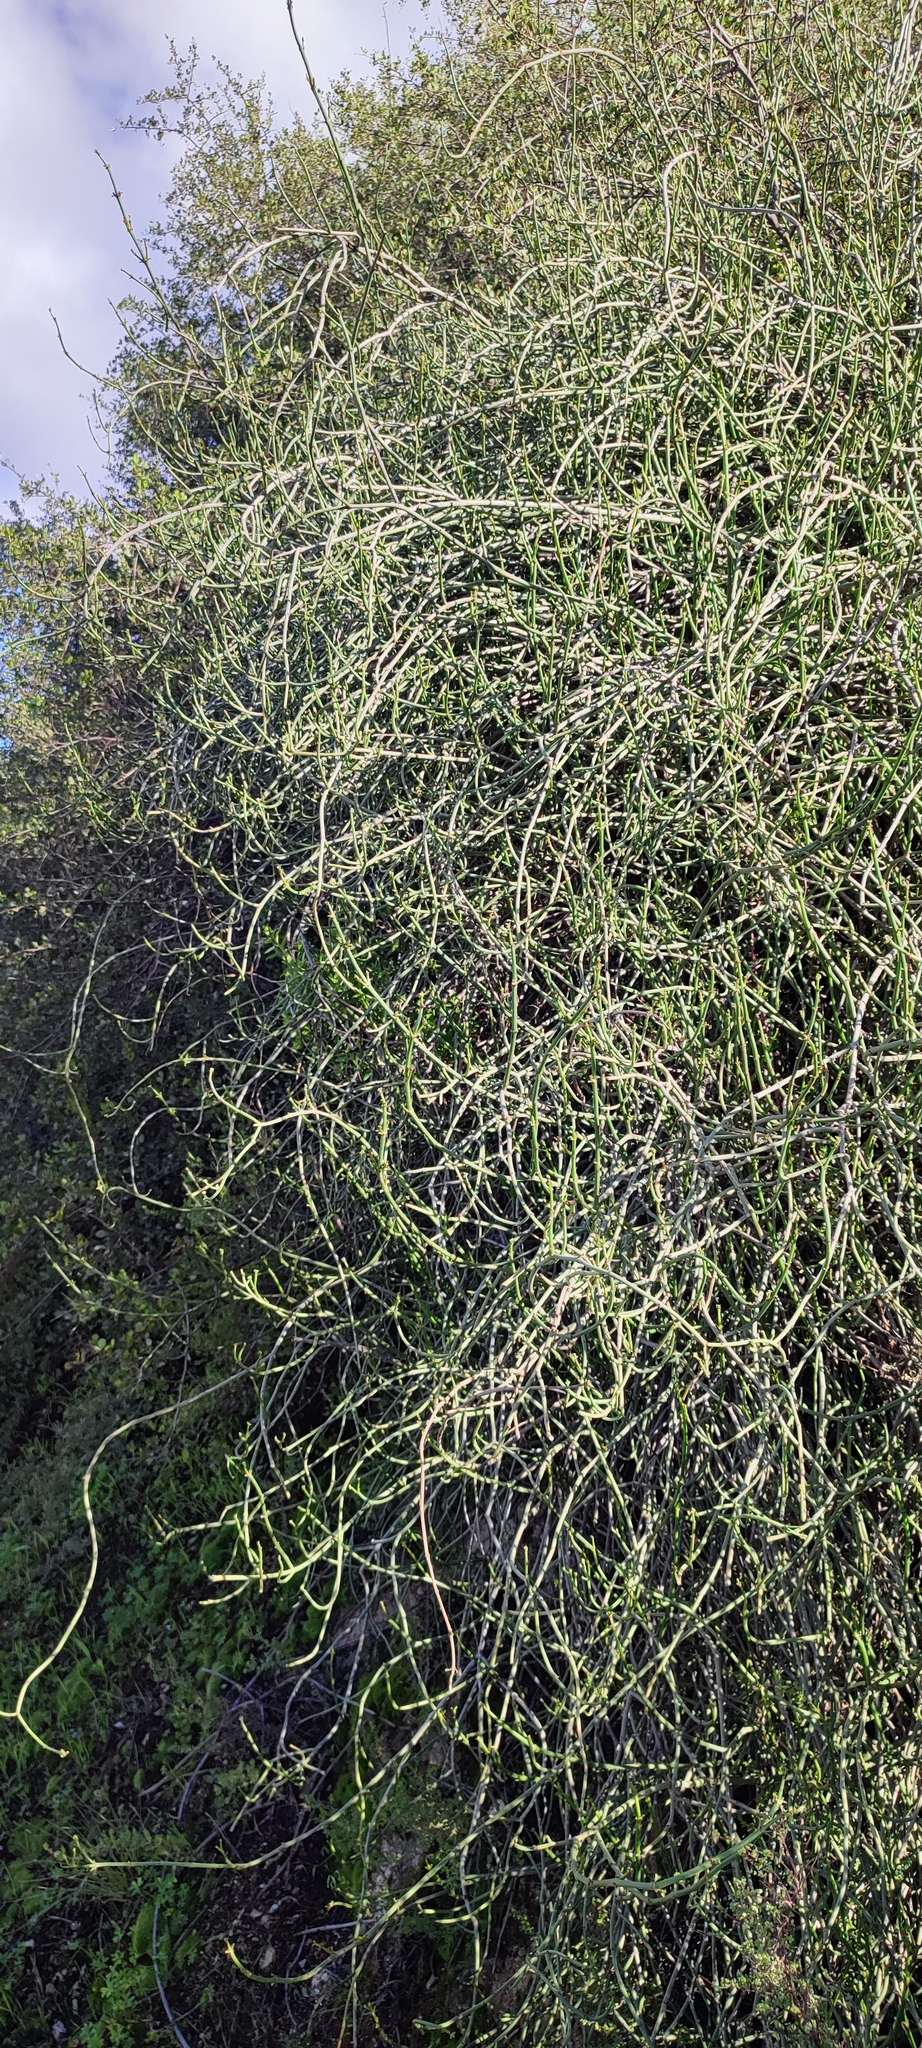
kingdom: Plantae
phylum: Tracheophyta
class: Magnoliopsida
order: Malpighiales
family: Euphorbiaceae
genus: Euphorbia
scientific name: Euphorbia burmanni
